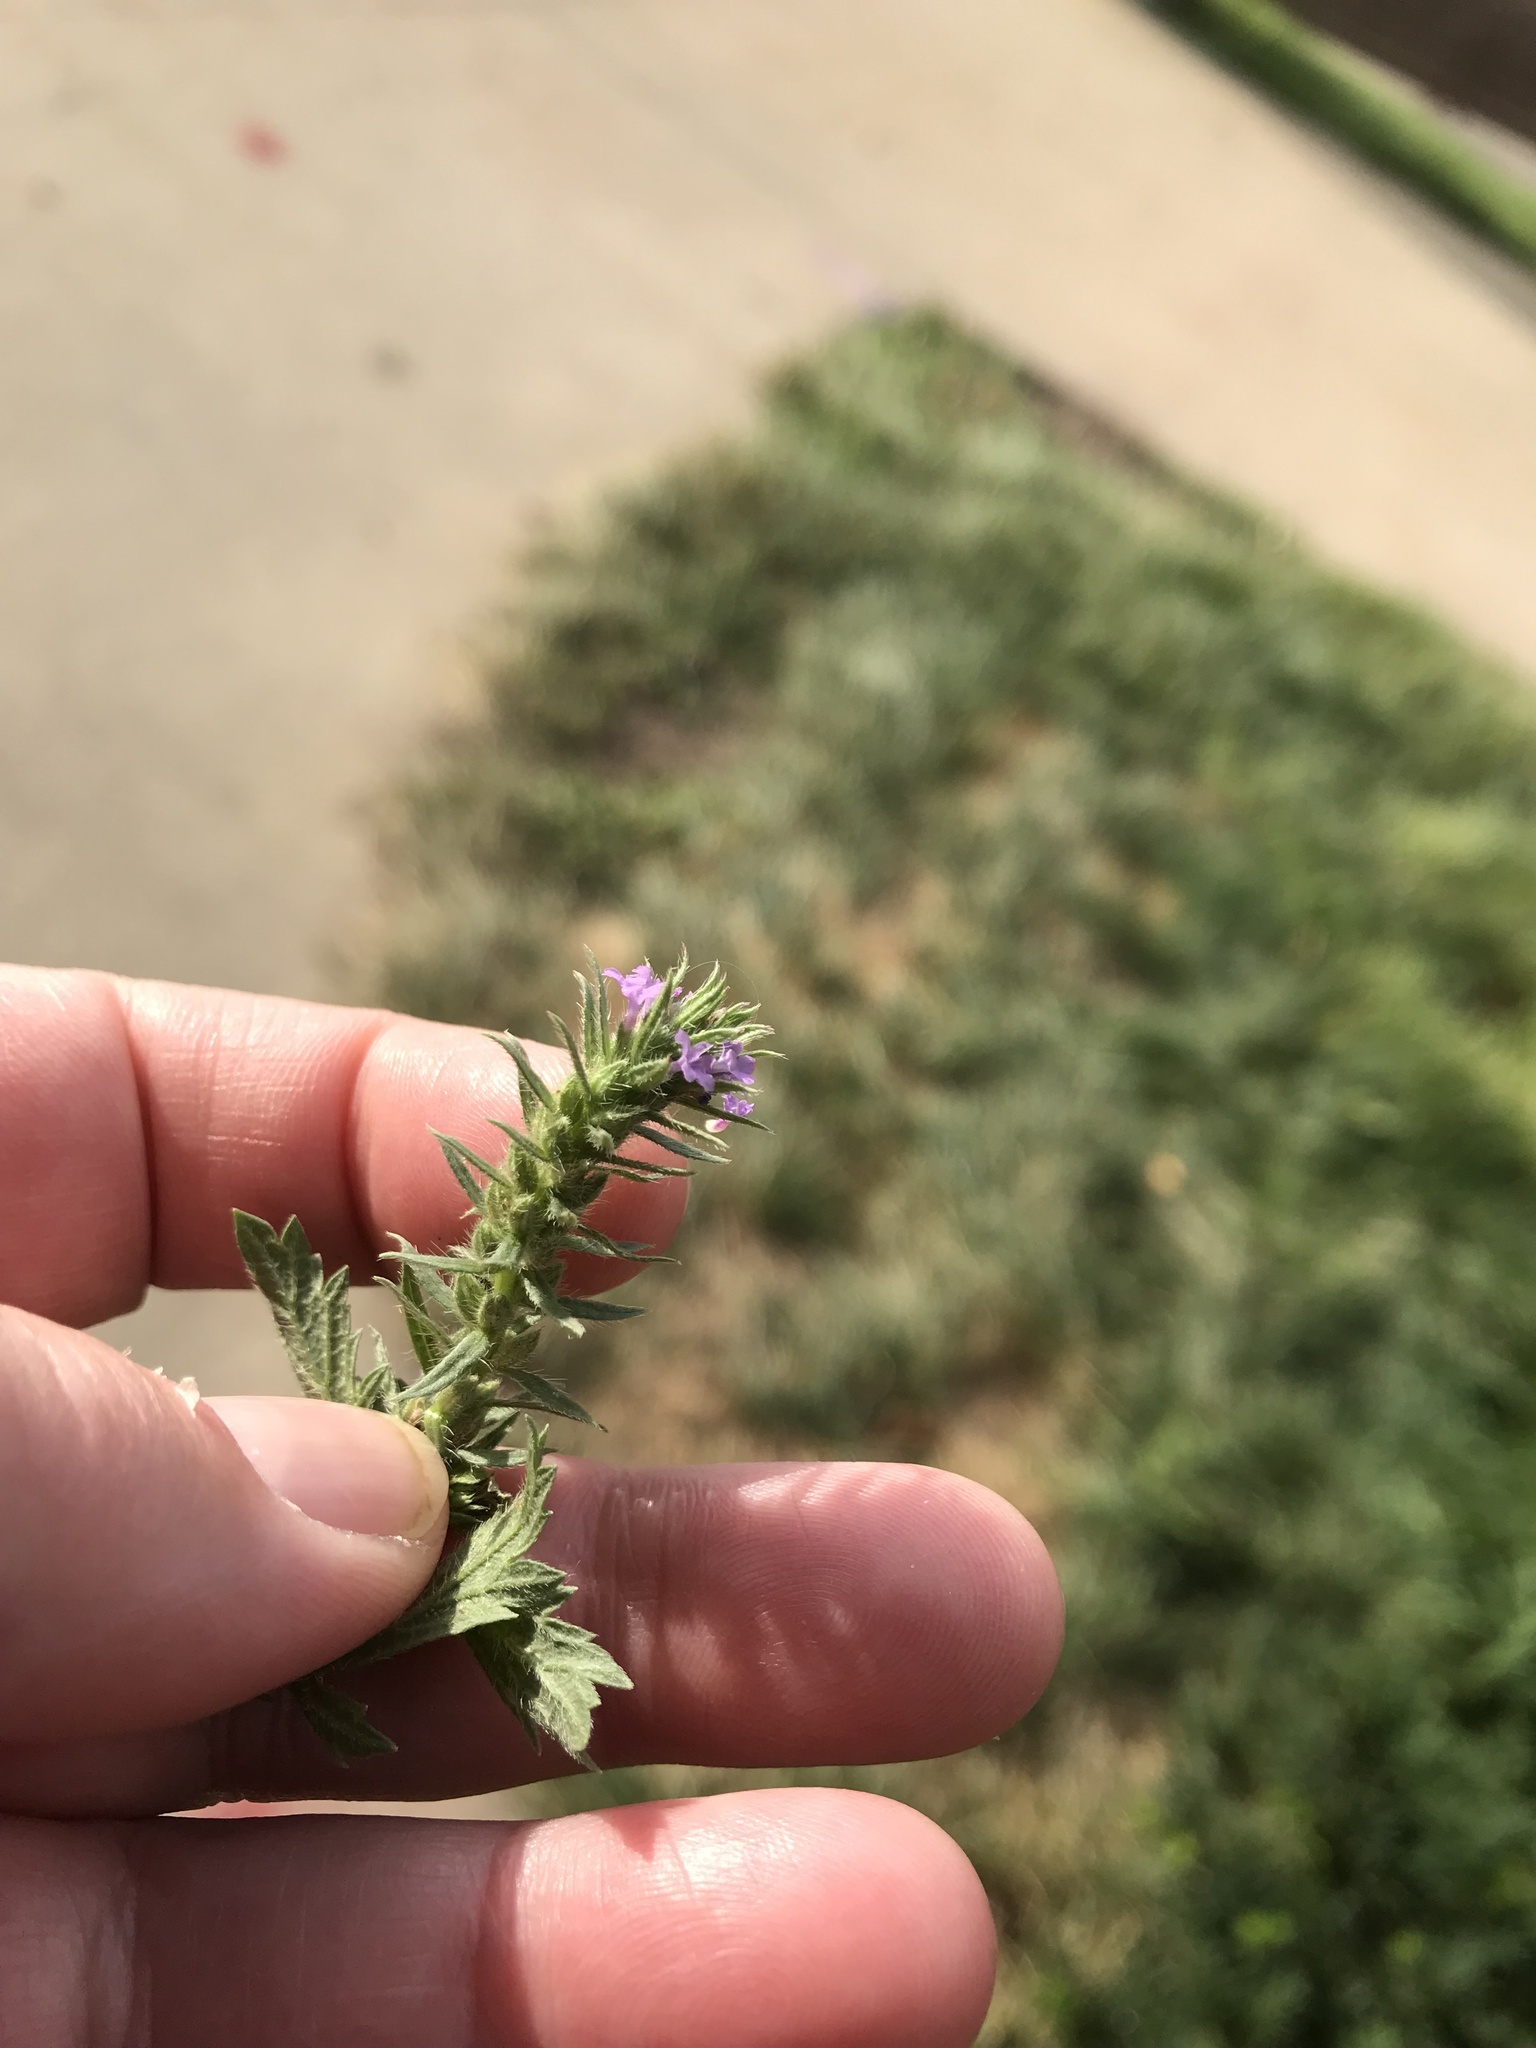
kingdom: Plantae
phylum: Tracheophyta
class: Magnoliopsida
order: Lamiales
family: Verbenaceae
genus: Verbena
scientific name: Verbena bracteata
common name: Bracted vervain
